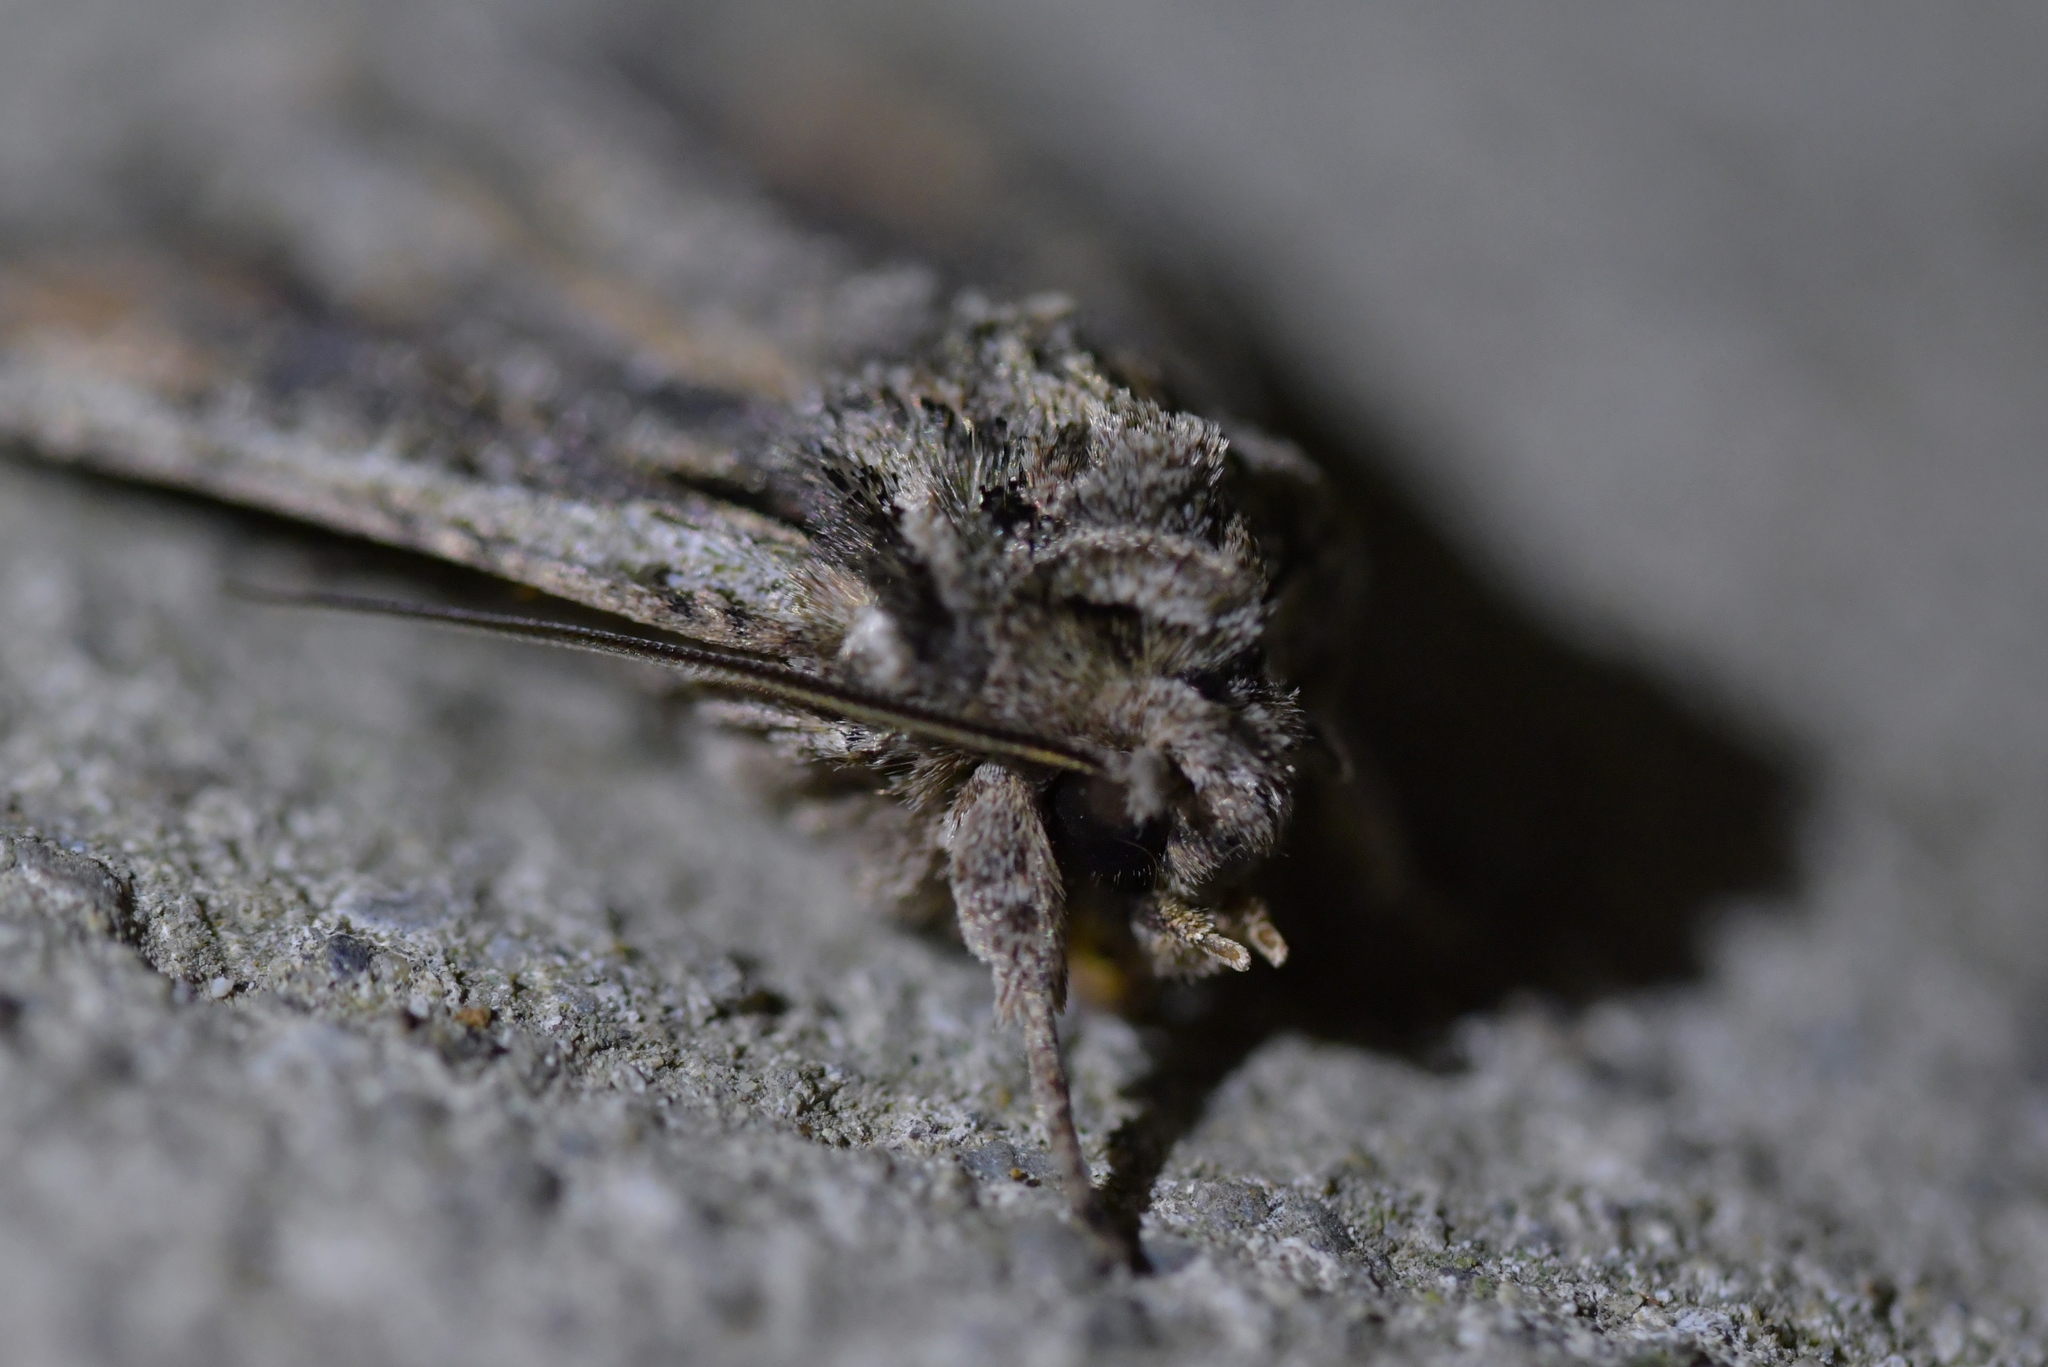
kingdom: Animalia
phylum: Arthropoda
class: Insecta
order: Lepidoptera
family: Noctuidae
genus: Ichneutica
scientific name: Ichneutica mutans
